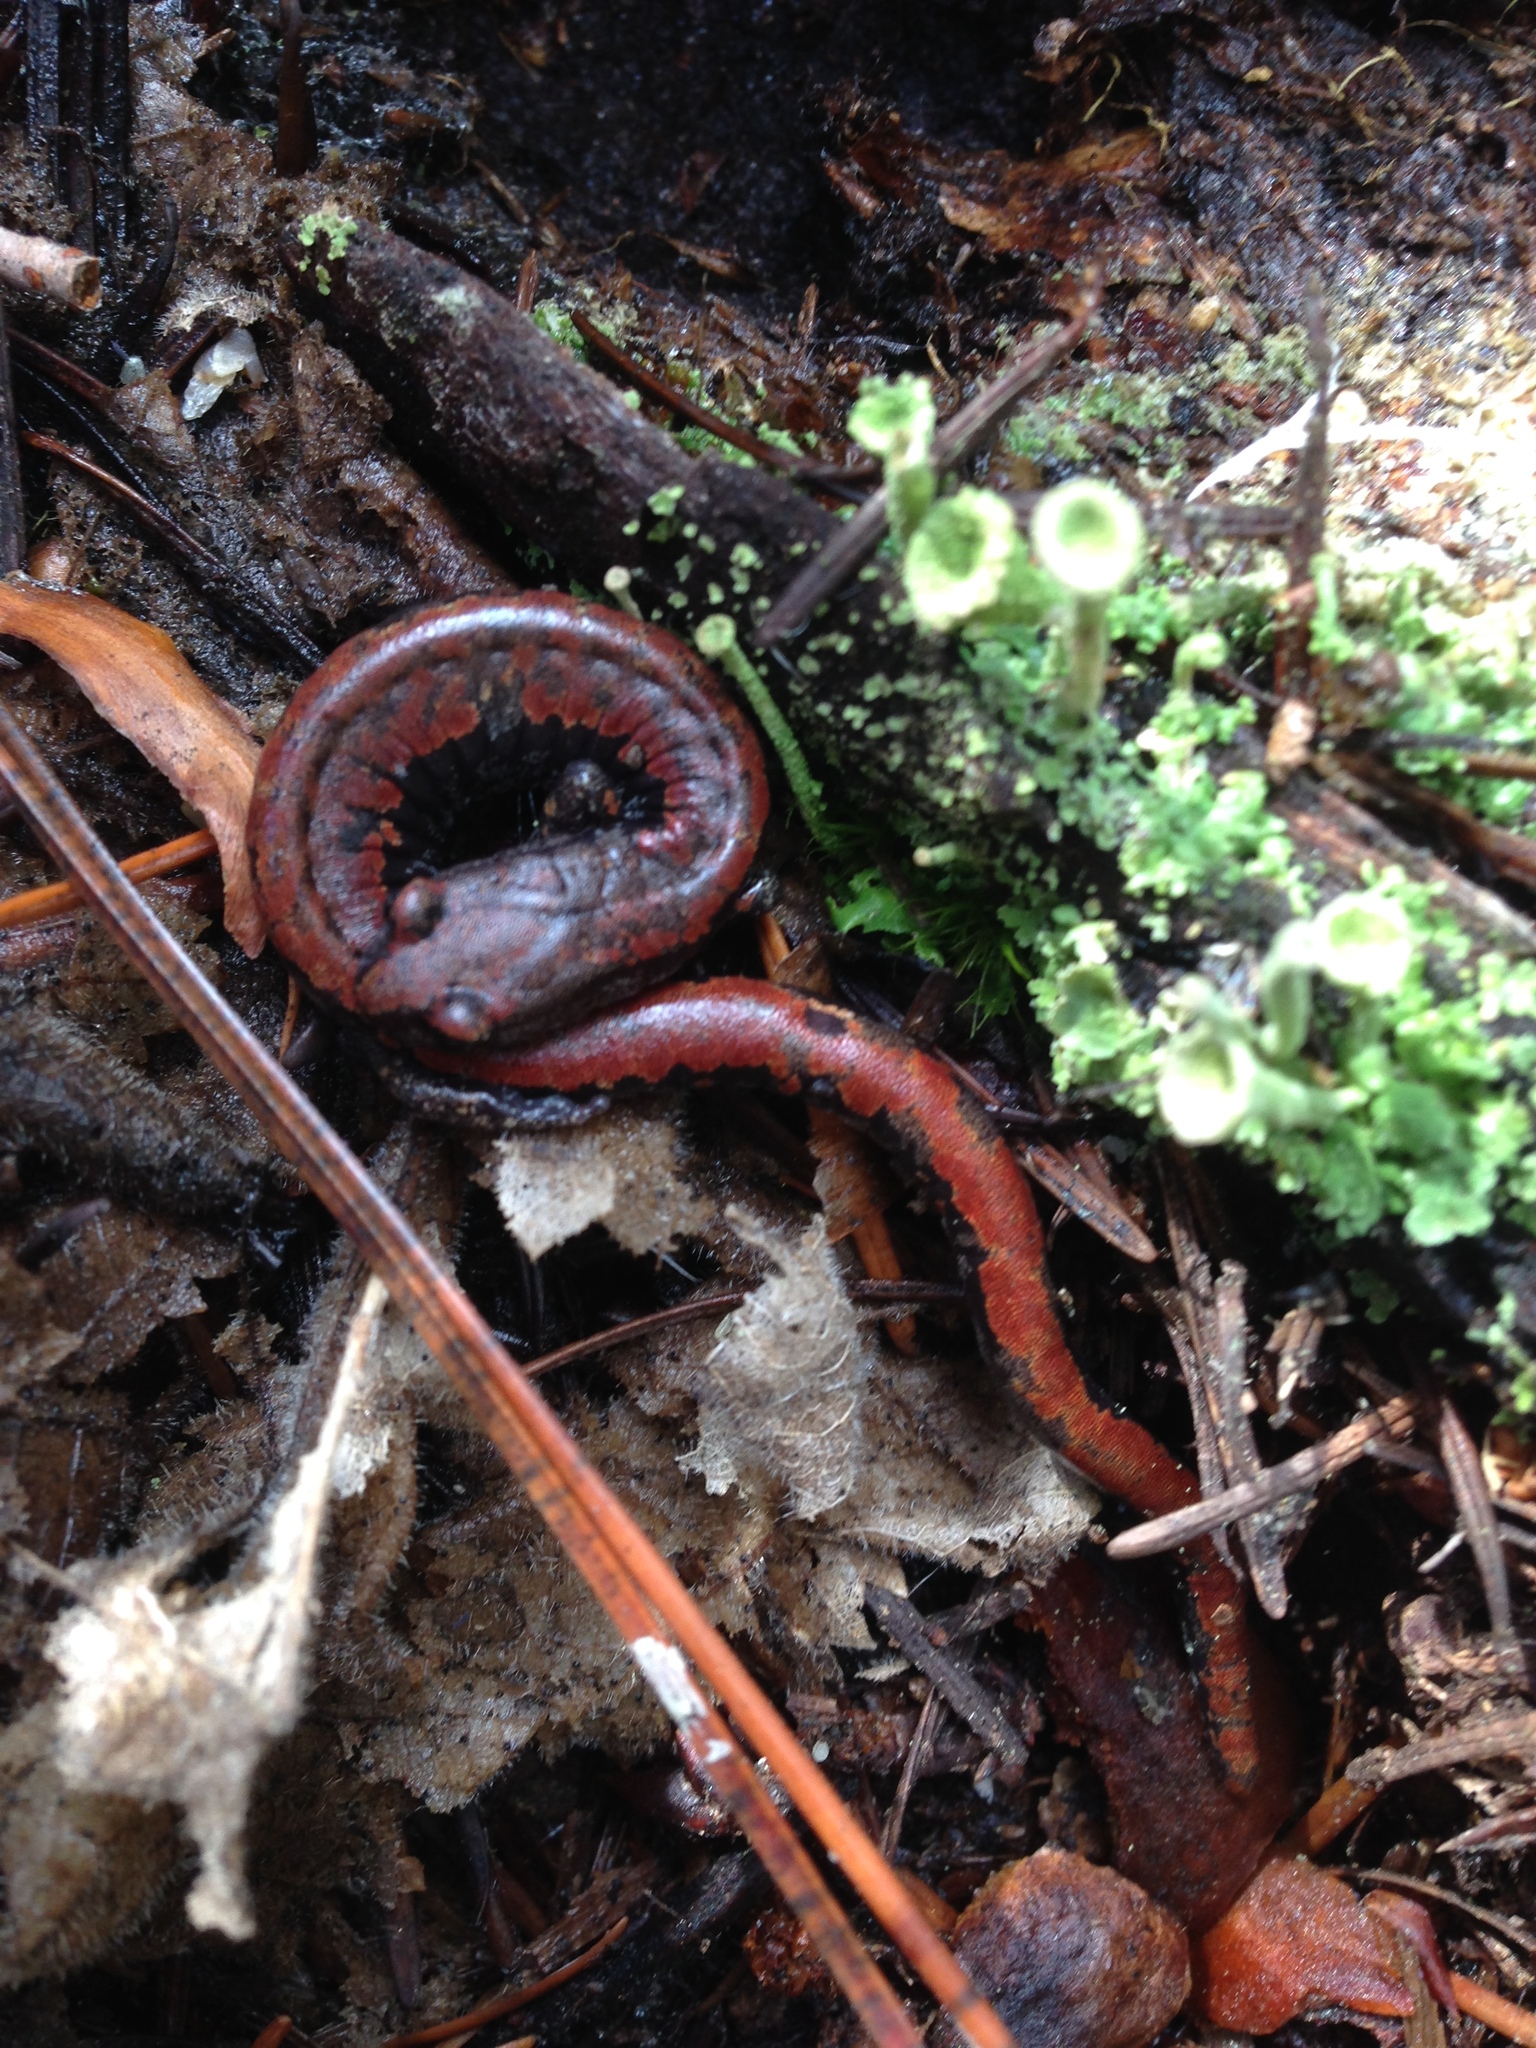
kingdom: Animalia
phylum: Chordata
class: Amphibia
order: Caudata
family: Plethodontidae
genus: Batrachoseps
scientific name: Batrachoseps wrighti
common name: Oregon slender salamander
